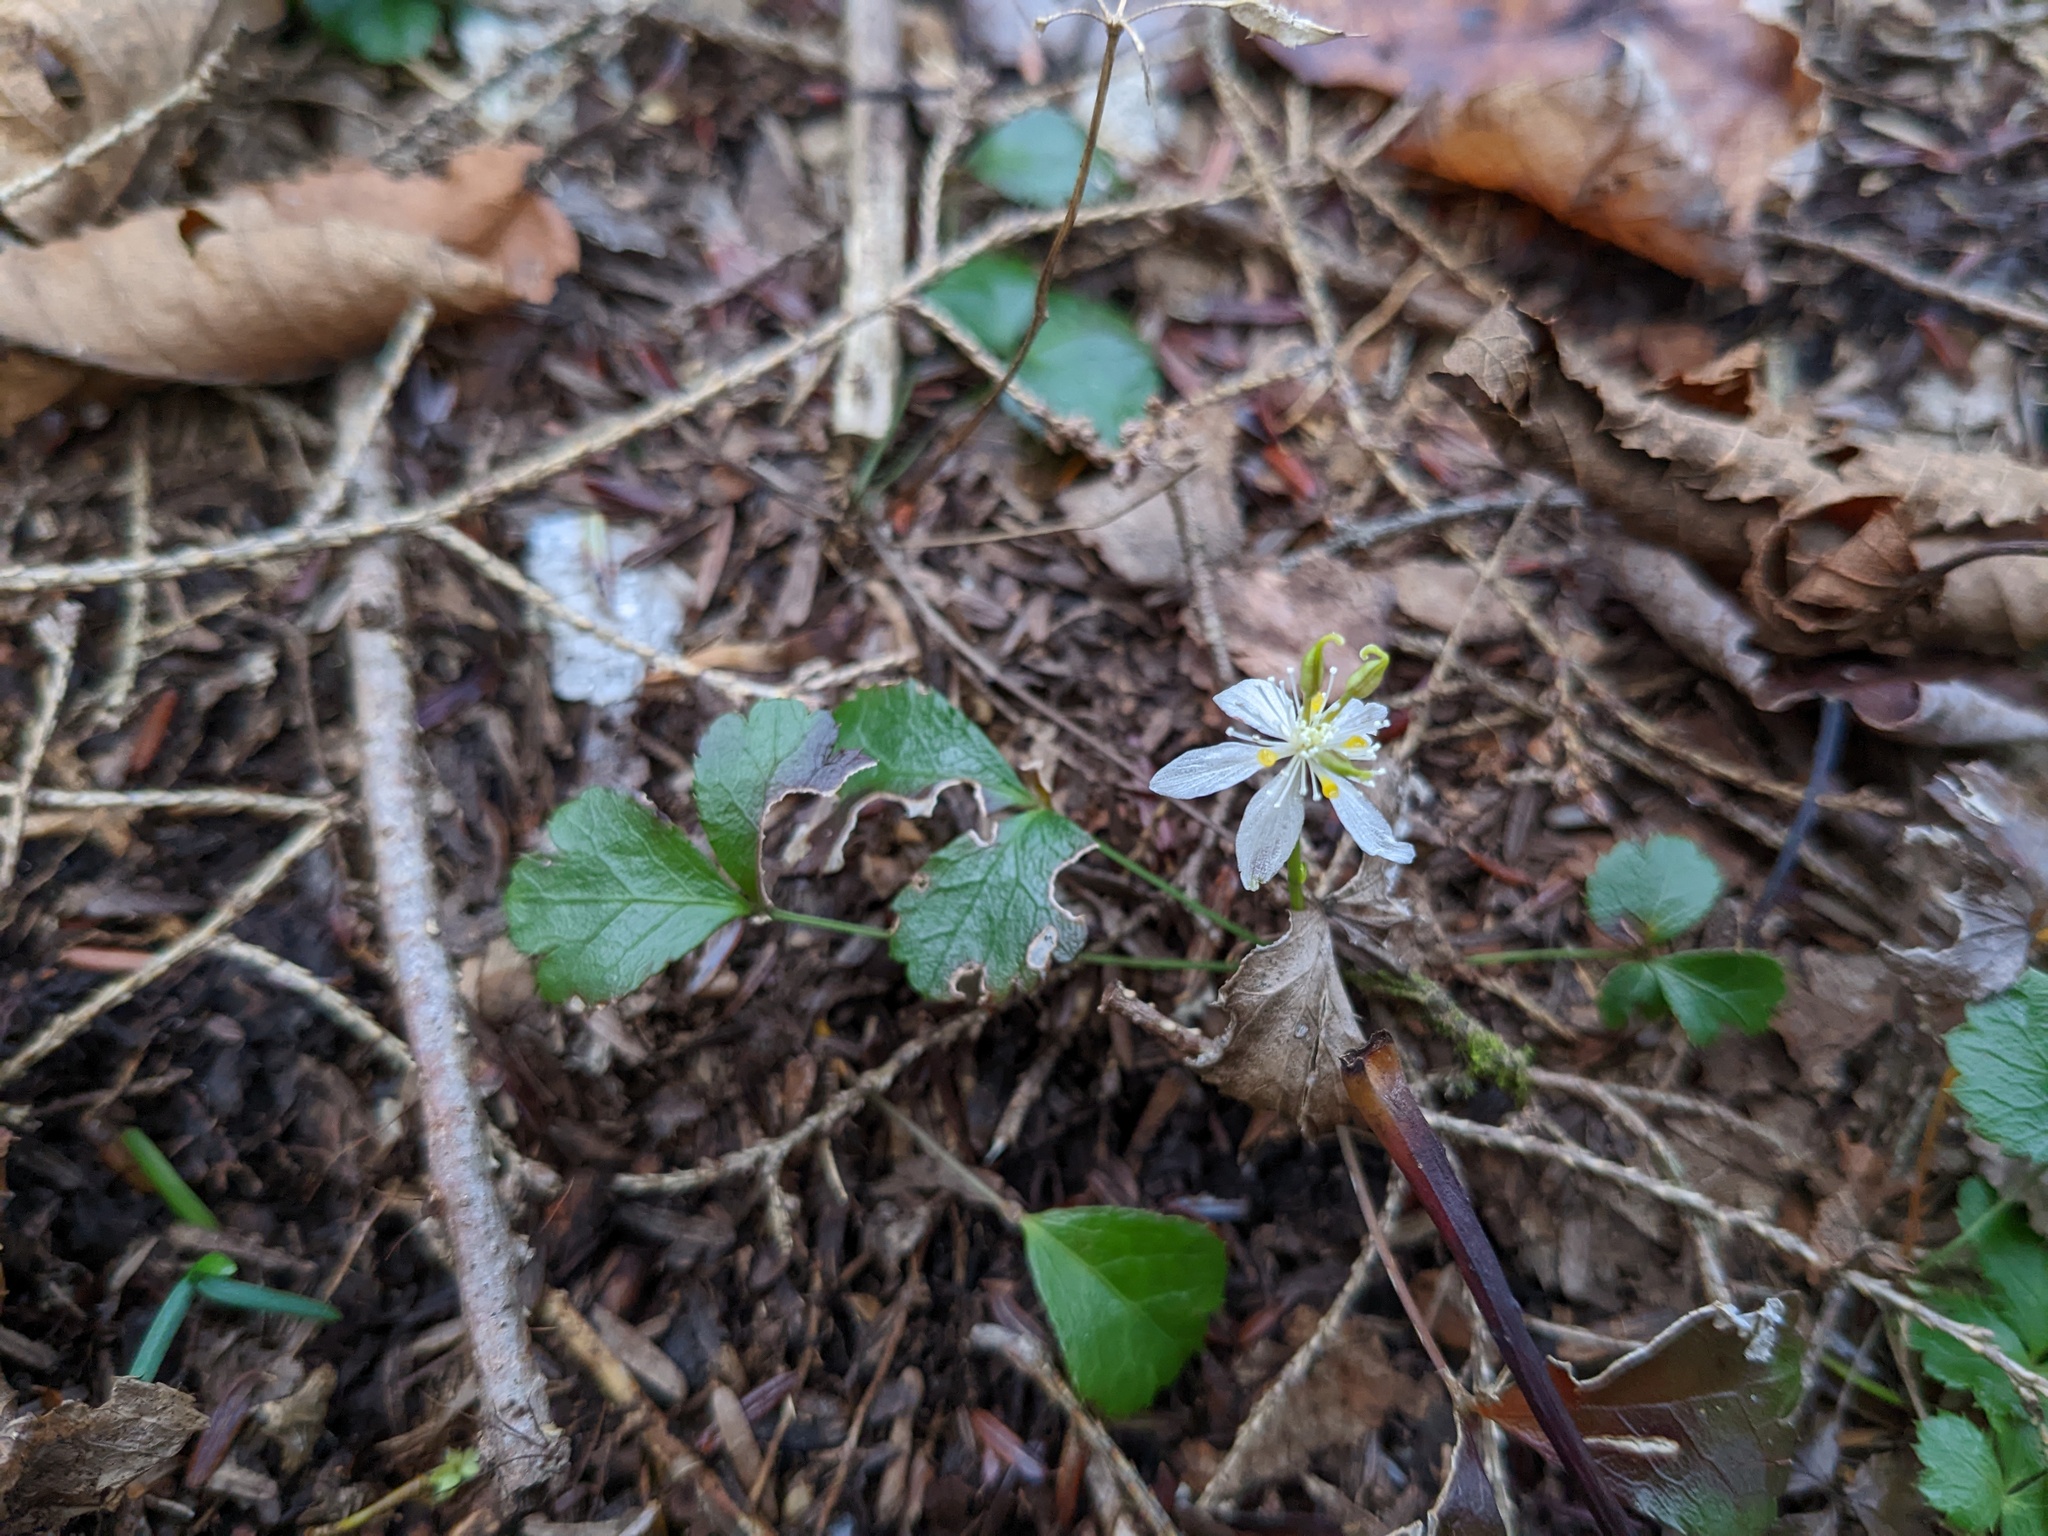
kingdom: Plantae
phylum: Tracheophyta
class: Magnoliopsida
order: Ranunculales
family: Ranunculaceae
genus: Coptis
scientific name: Coptis trifolia
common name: Canker-root
